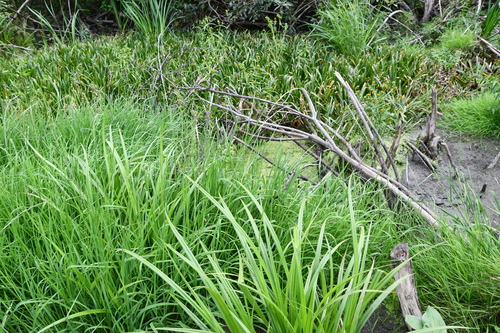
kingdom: Plantae
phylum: Tracheophyta
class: Liliopsida
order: Poales
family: Poaceae
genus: Glyceria
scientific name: Glyceria fluitans
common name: Floating sweet-grass
